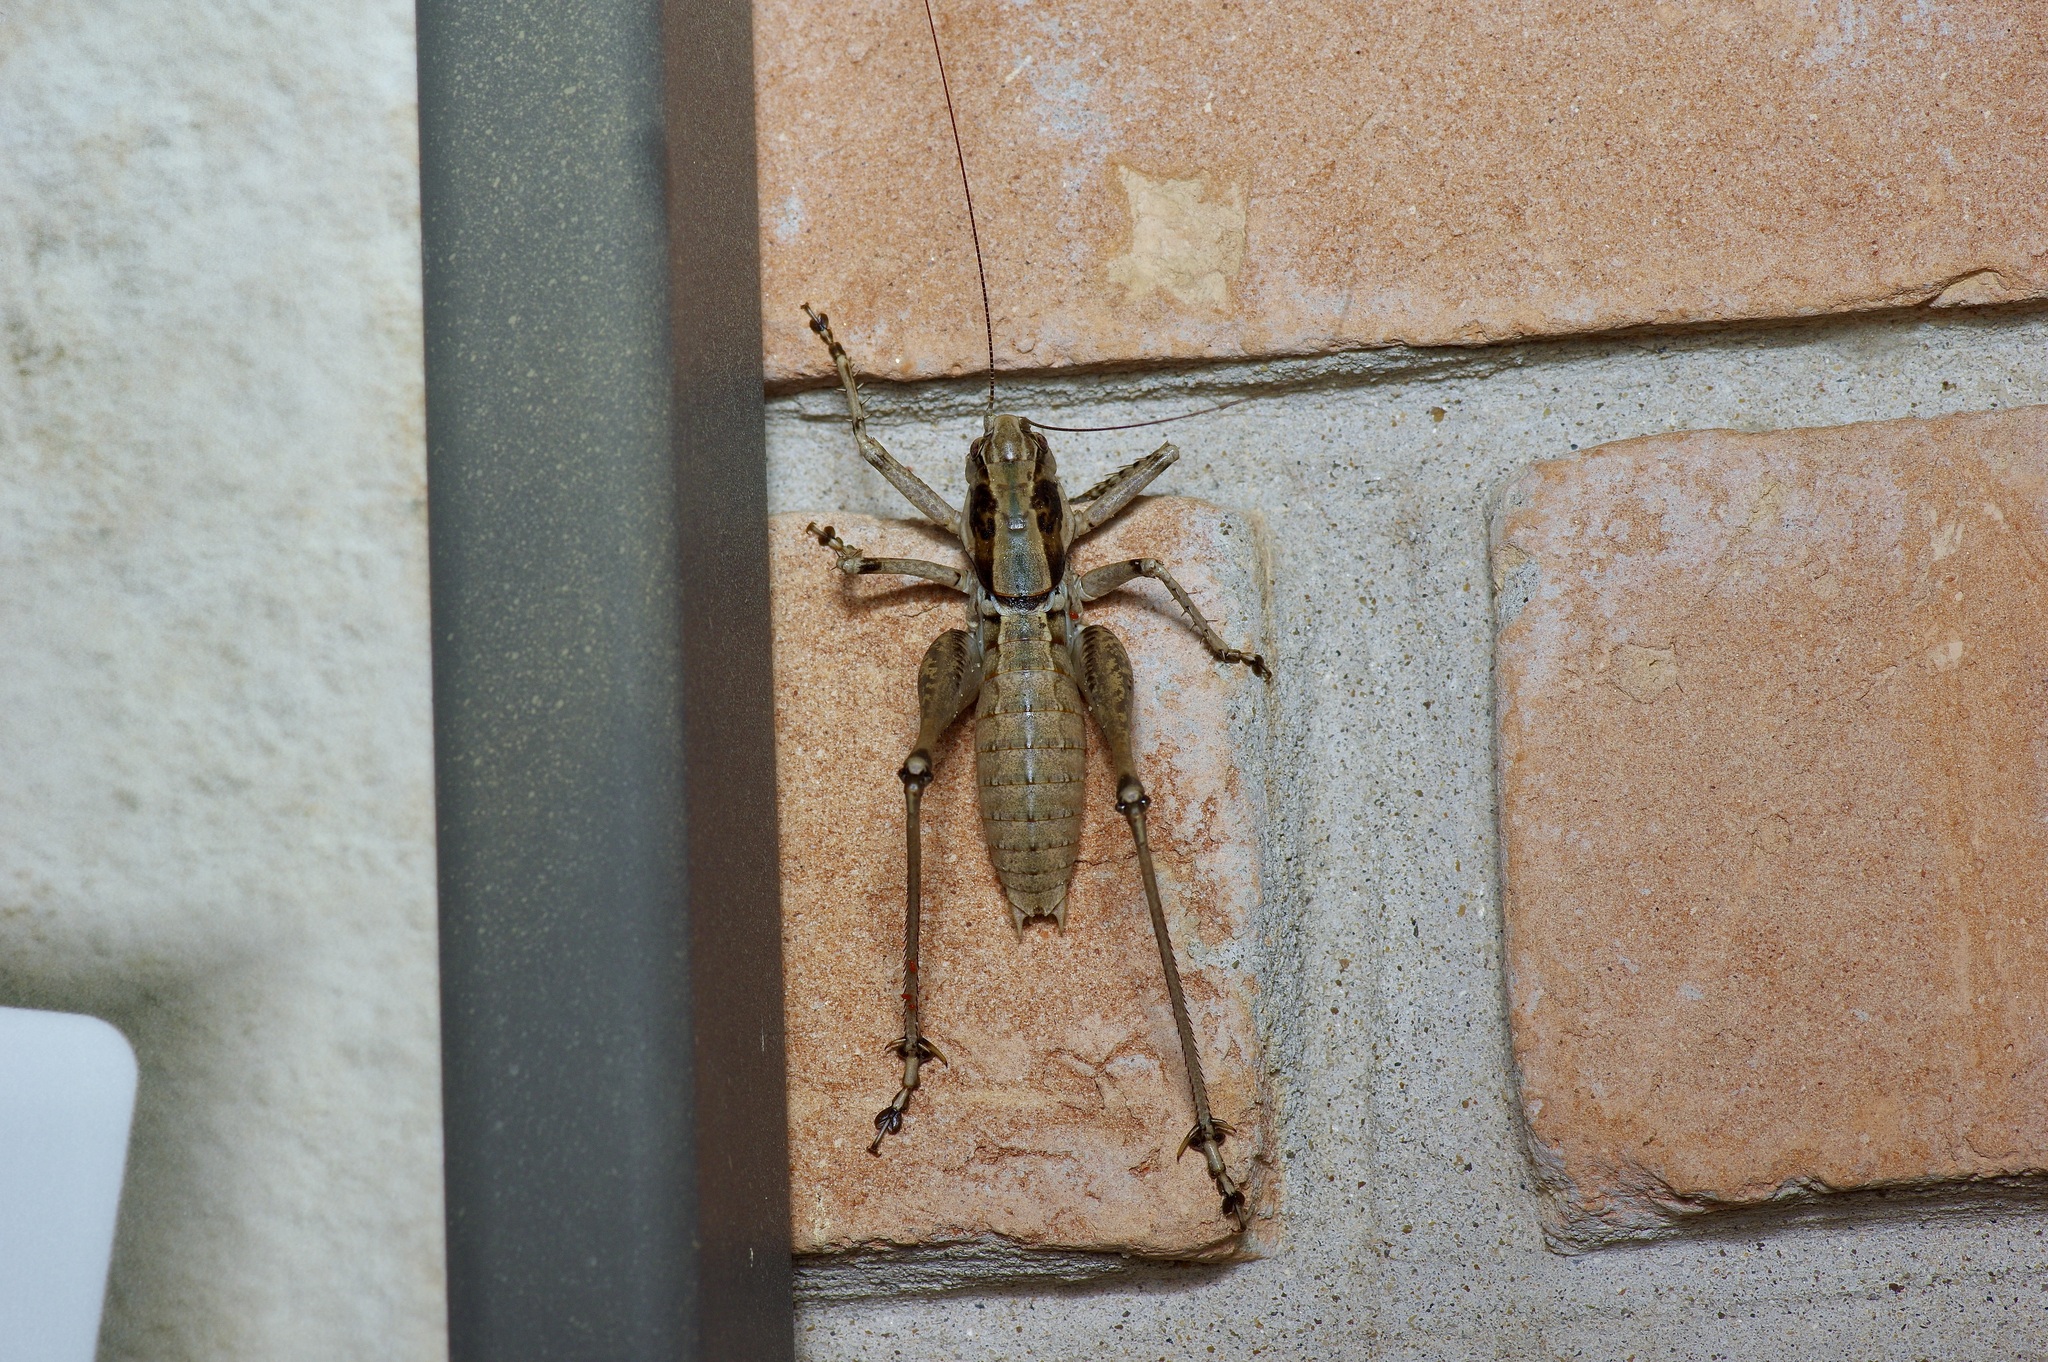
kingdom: Animalia
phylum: Arthropoda
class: Insecta
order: Orthoptera
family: Tettigoniidae
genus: Pediodectes
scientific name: Pediodectes grandis
